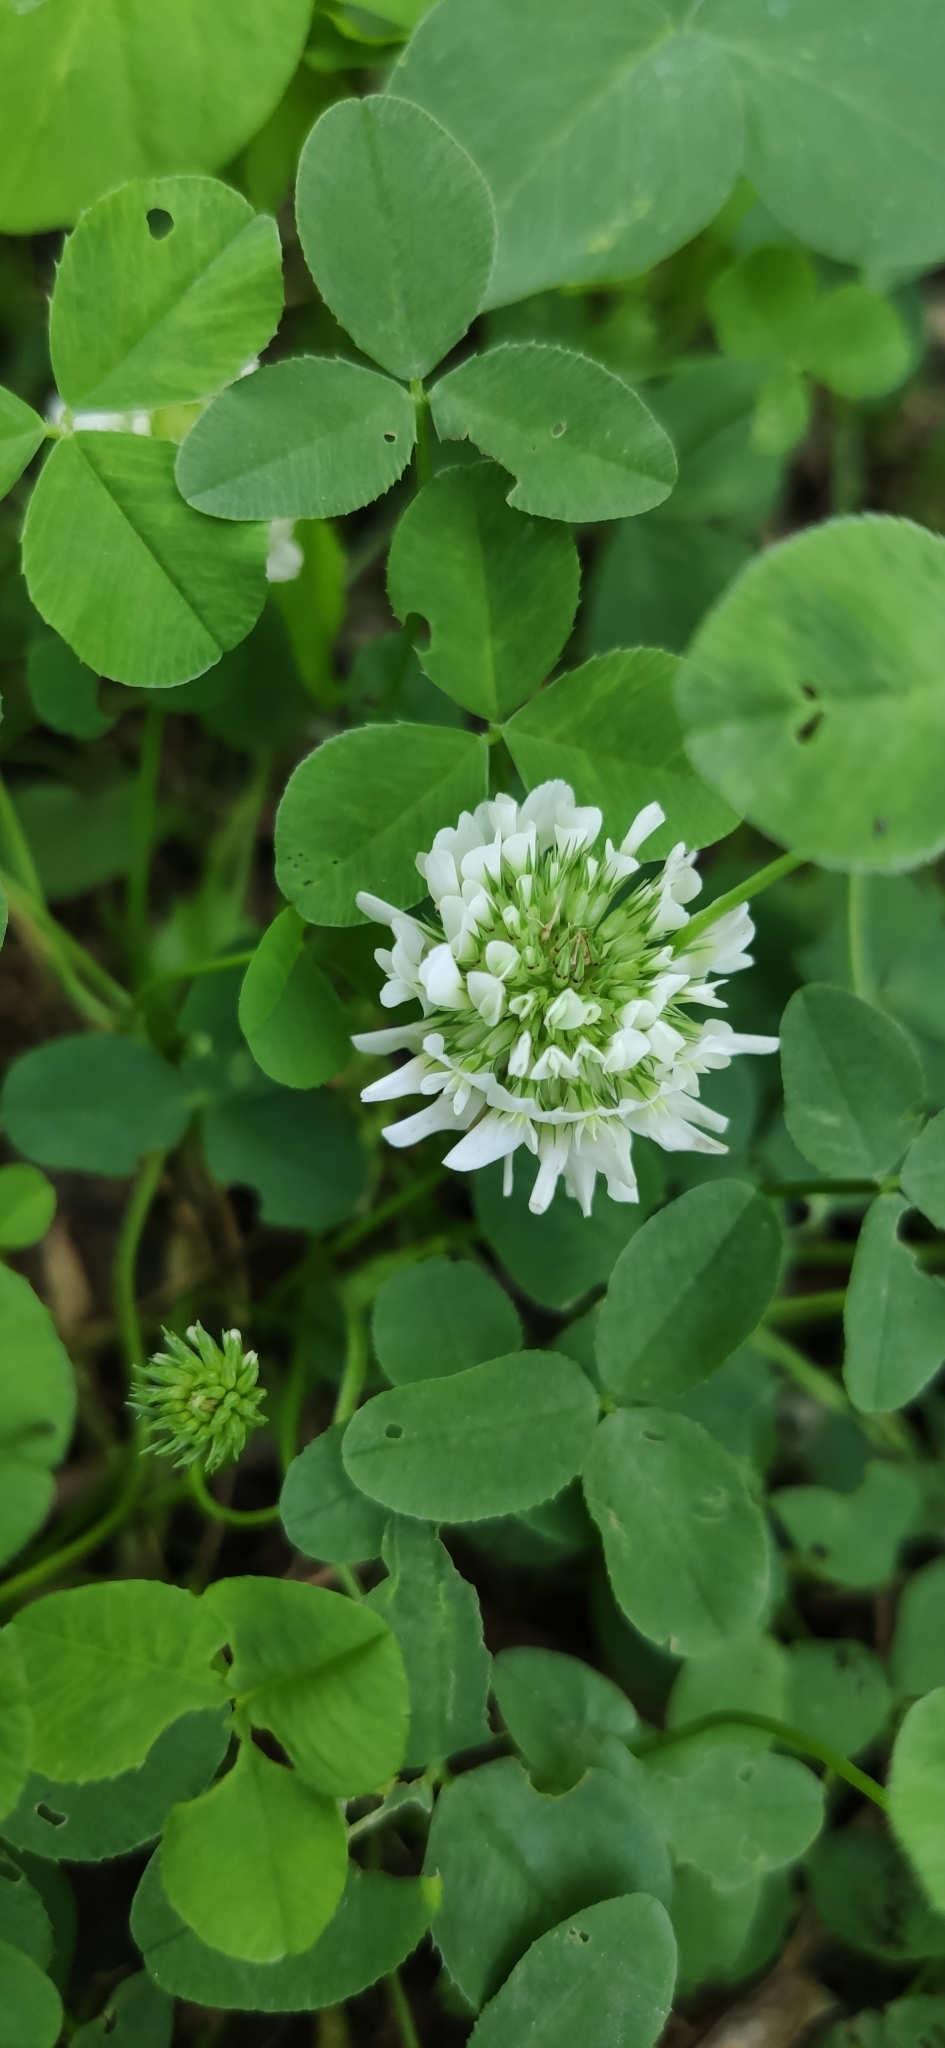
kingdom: Plantae
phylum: Tracheophyta
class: Magnoliopsida
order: Fabales
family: Fabaceae
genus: Trifolium
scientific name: Trifolium repens
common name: White clover
